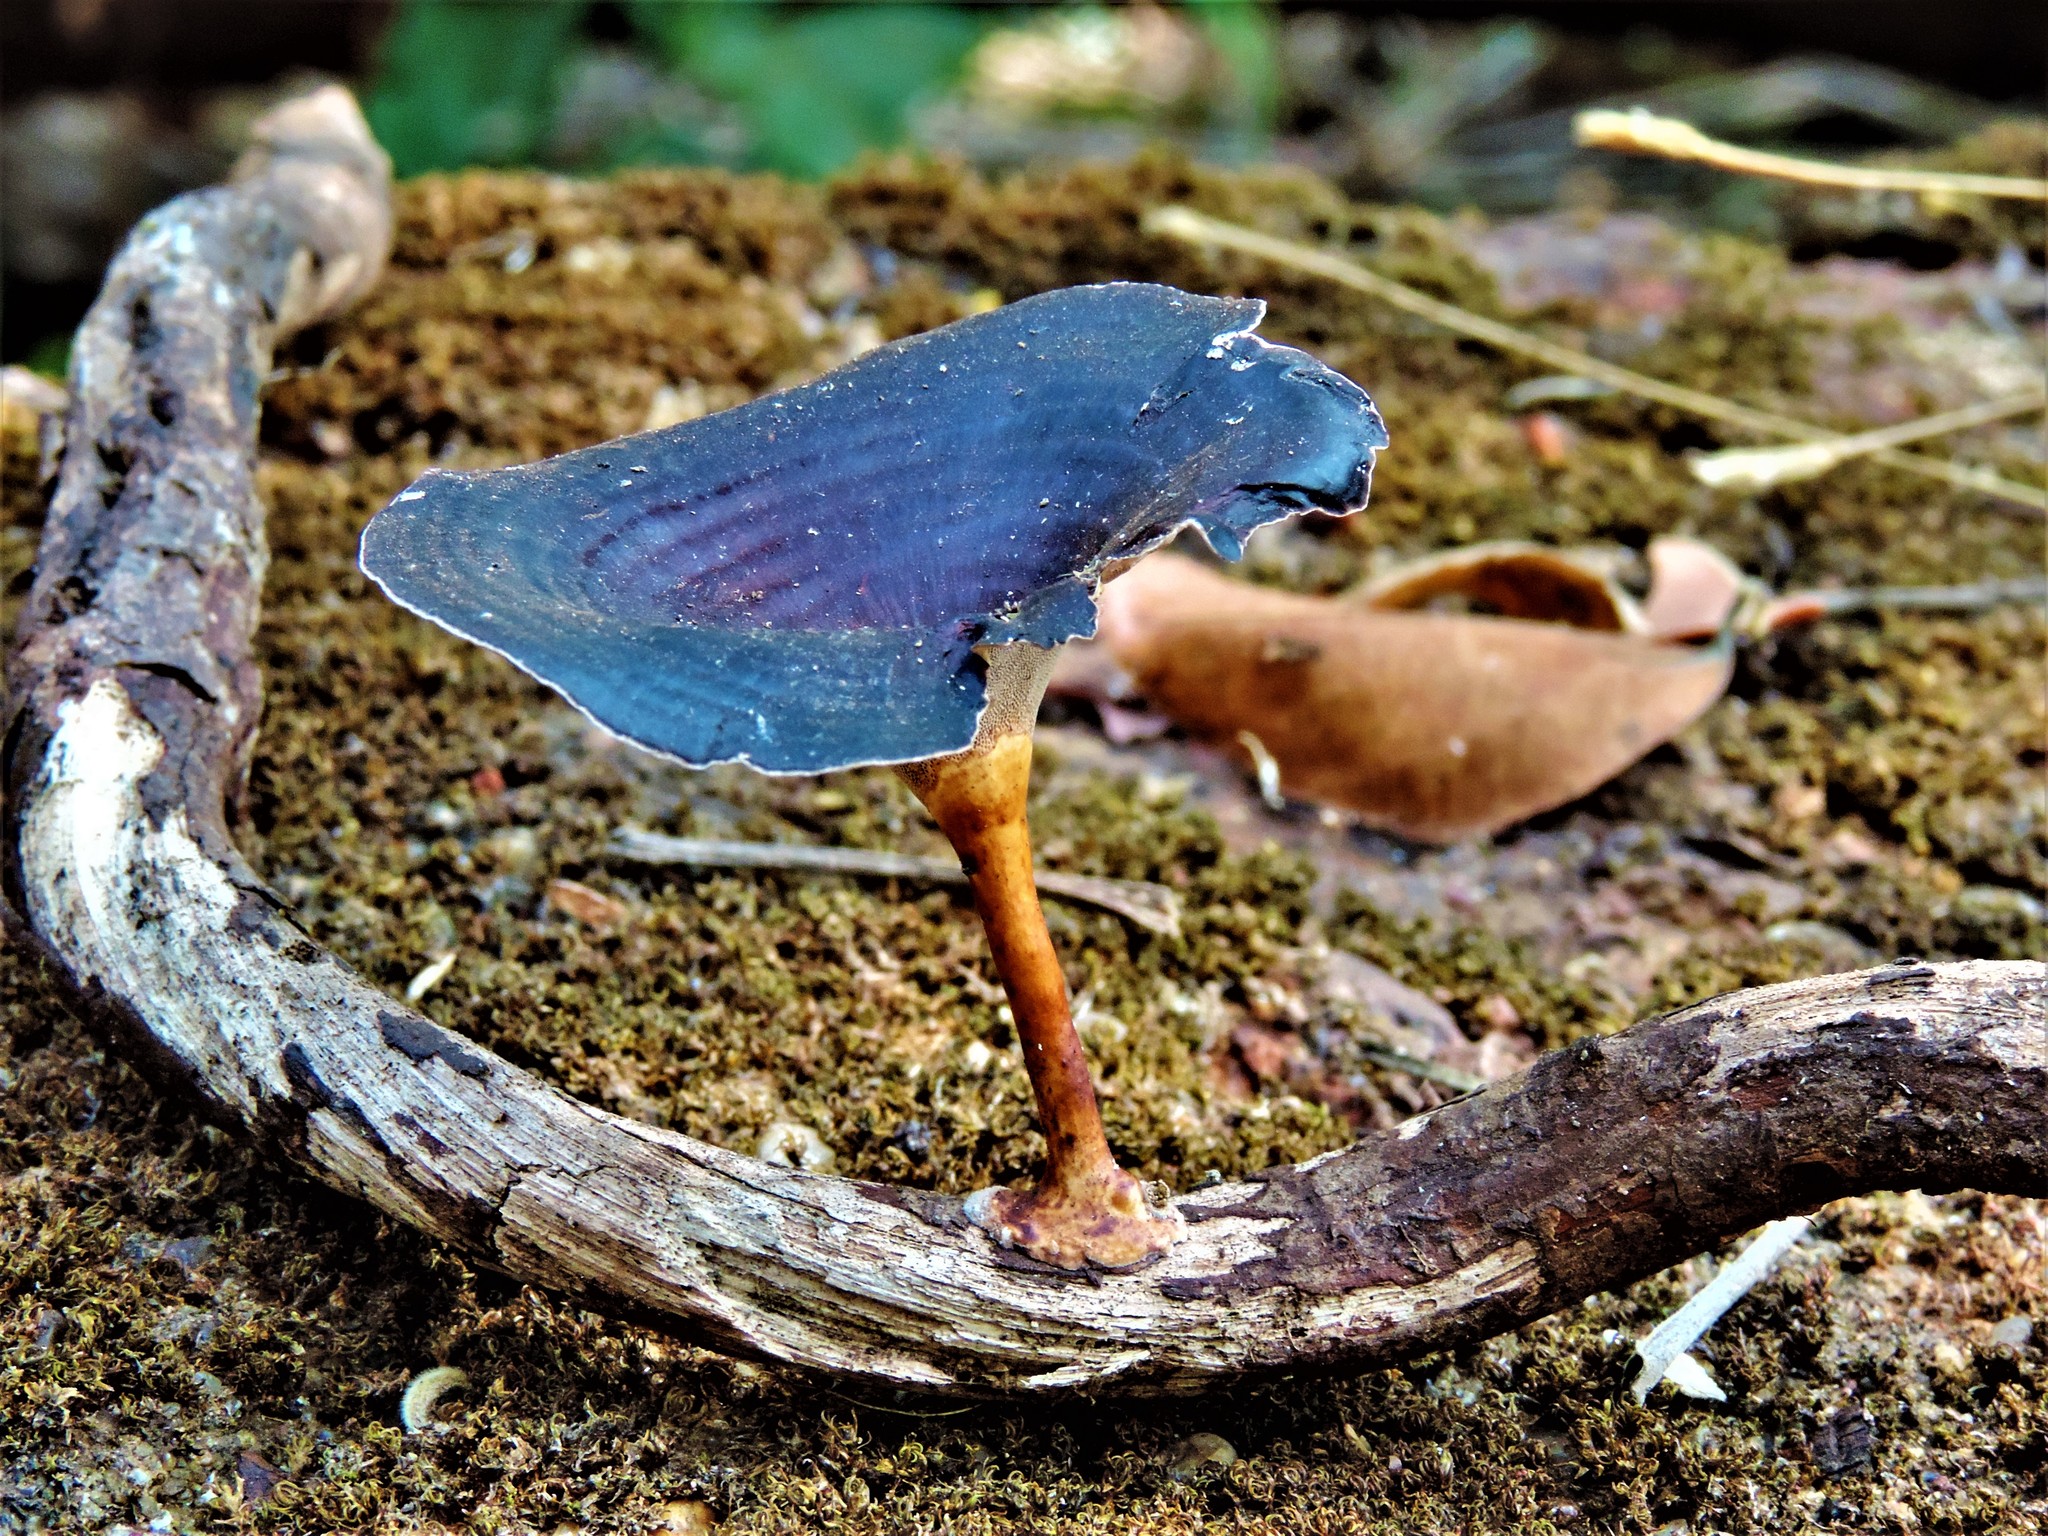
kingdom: Fungi
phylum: Basidiomycota
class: Agaricomycetes
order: Polyporales
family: Polyporaceae
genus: Microporus
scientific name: Microporus xanthopus
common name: Yellow-stemmed micropore
